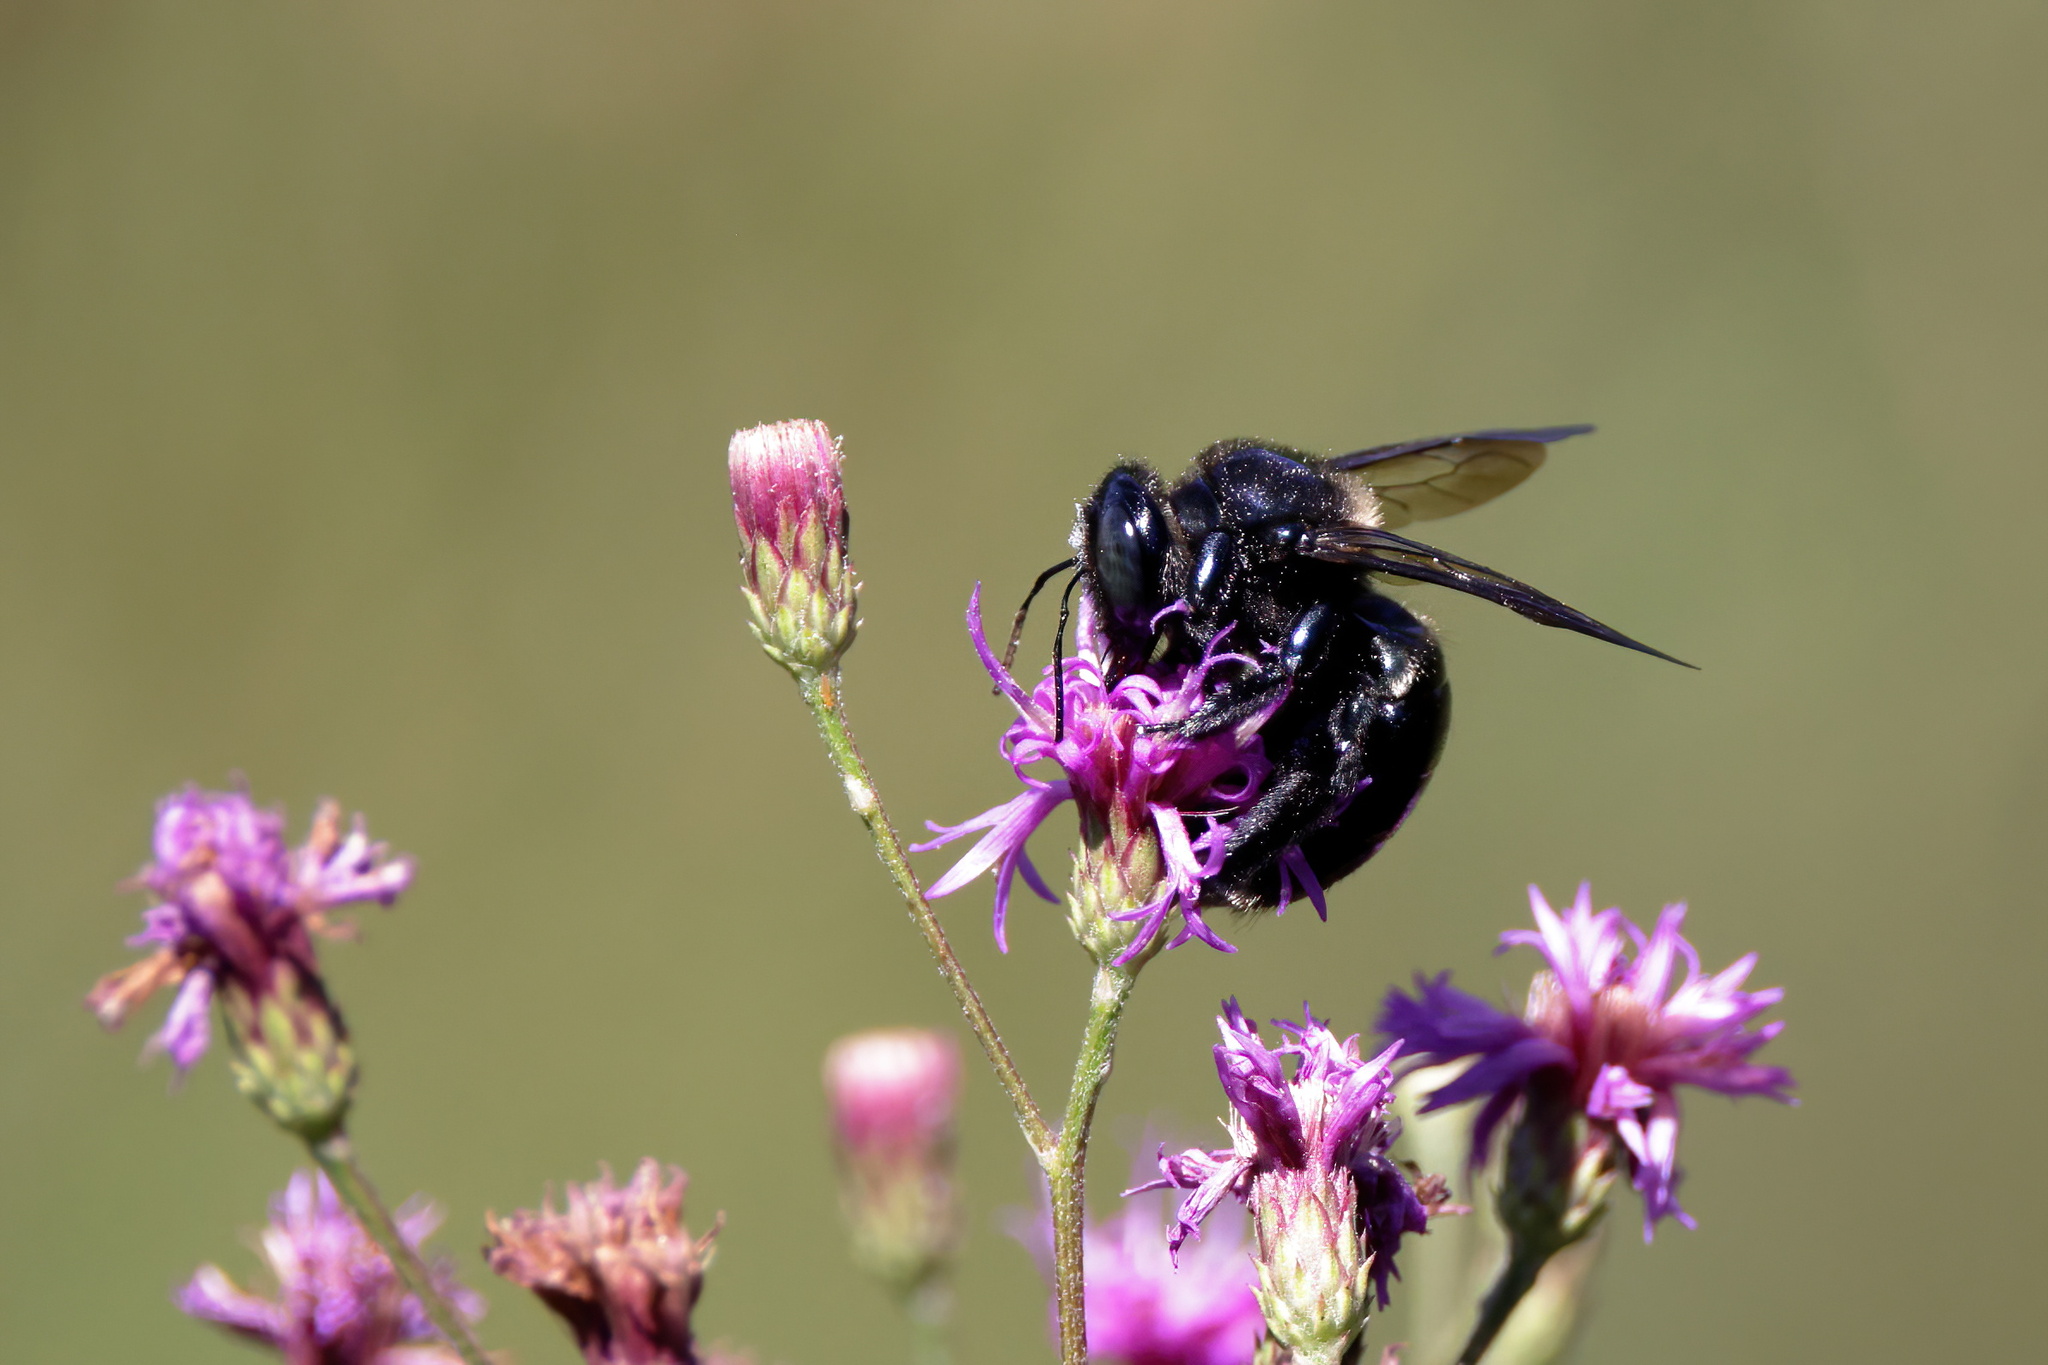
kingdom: Animalia
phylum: Arthropoda
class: Insecta
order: Hymenoptera
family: Apidae
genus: Xylocopa
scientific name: Xylocopa micans
